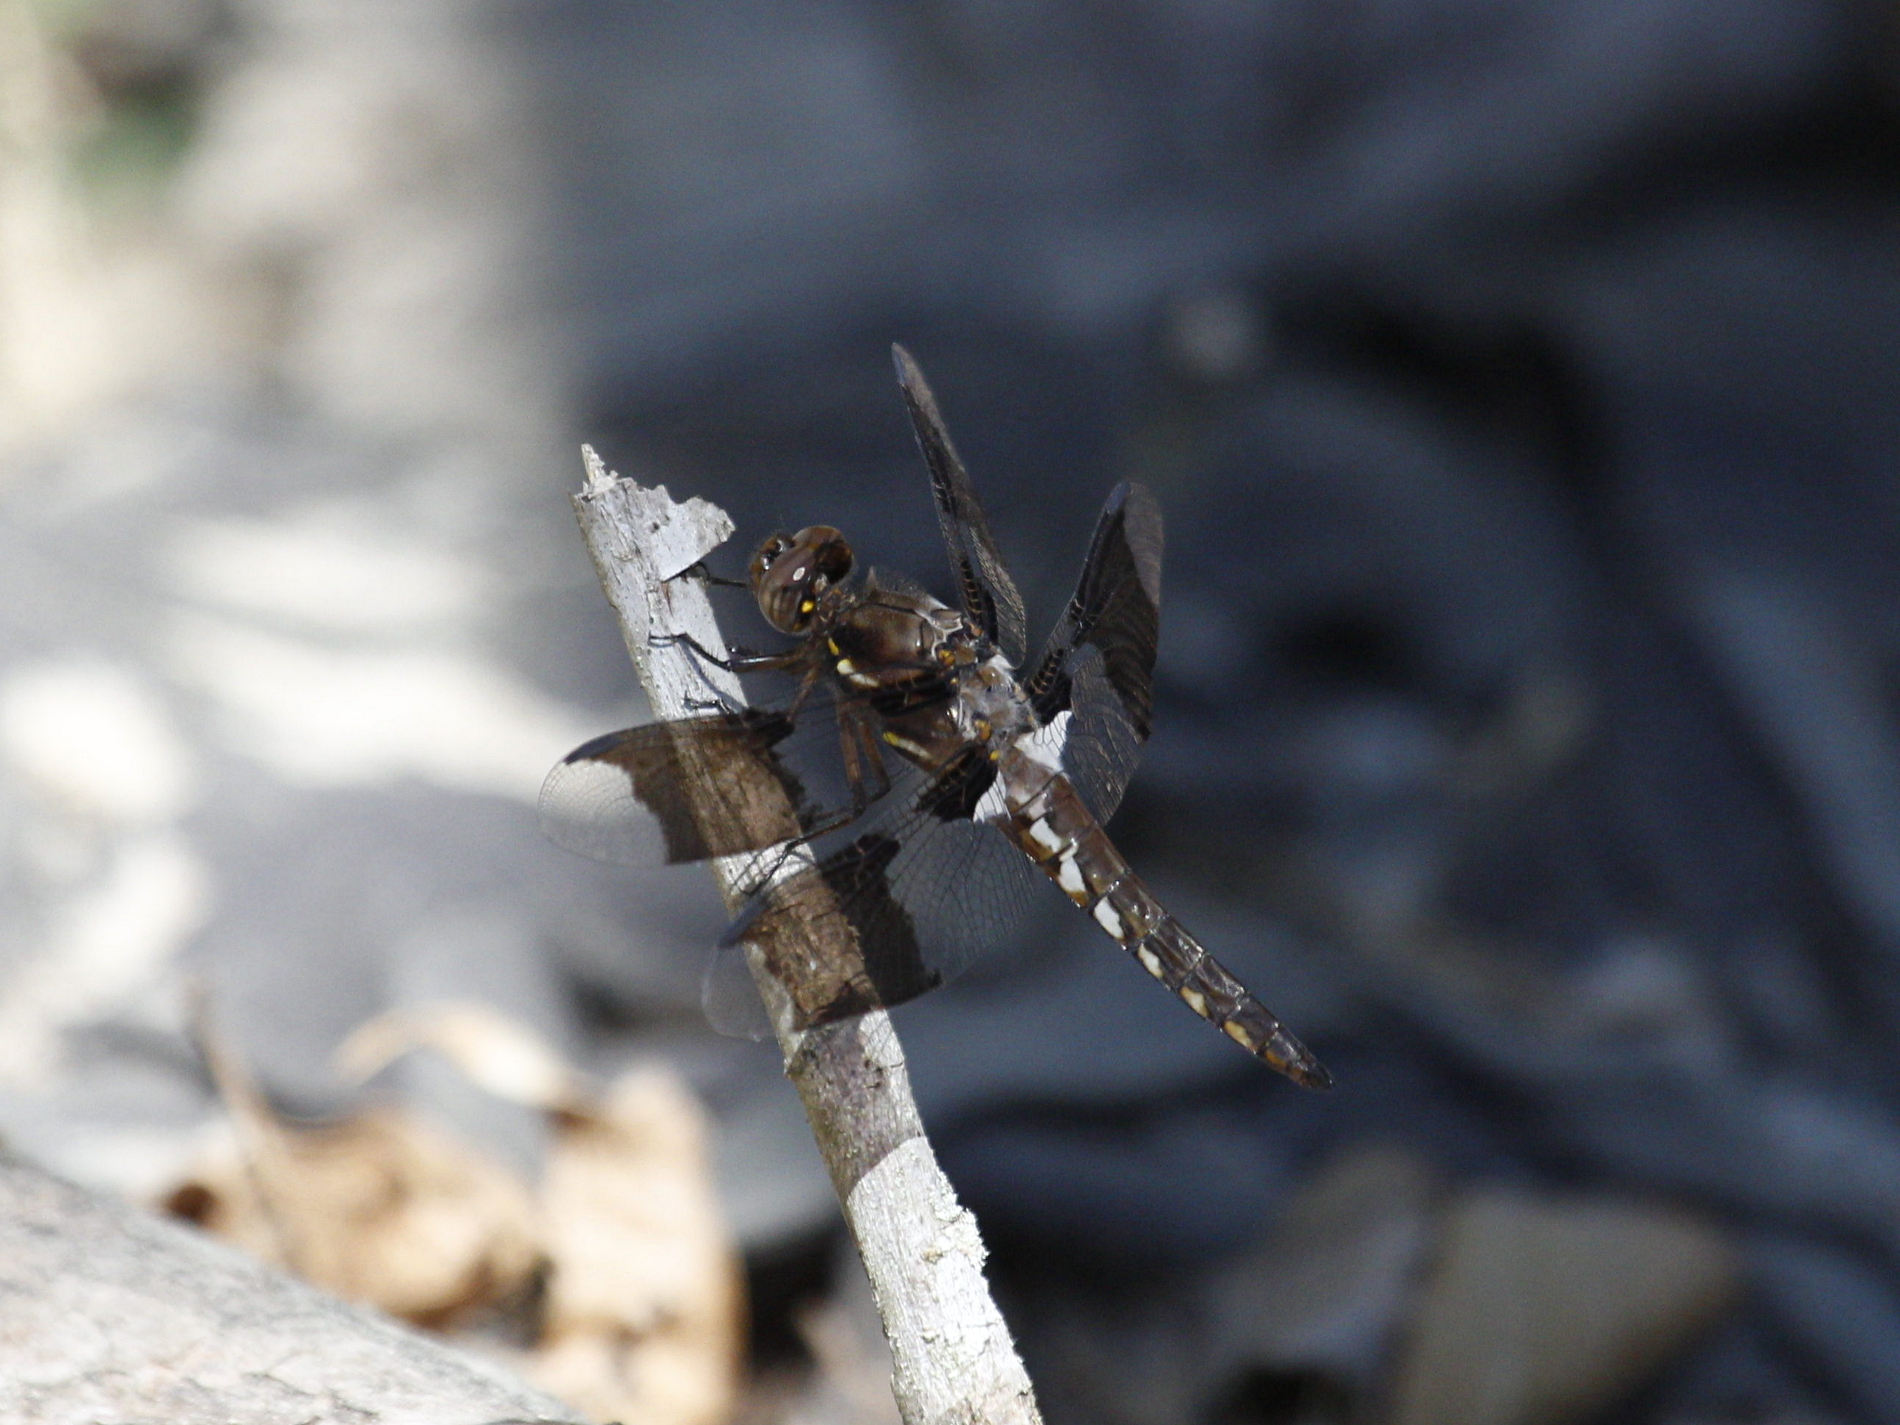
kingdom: Animalia
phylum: Arthropoda
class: Insecta
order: Odonata
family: Libellulidae
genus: Plathemis
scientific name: Plathemis lydia
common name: Common whitetail
